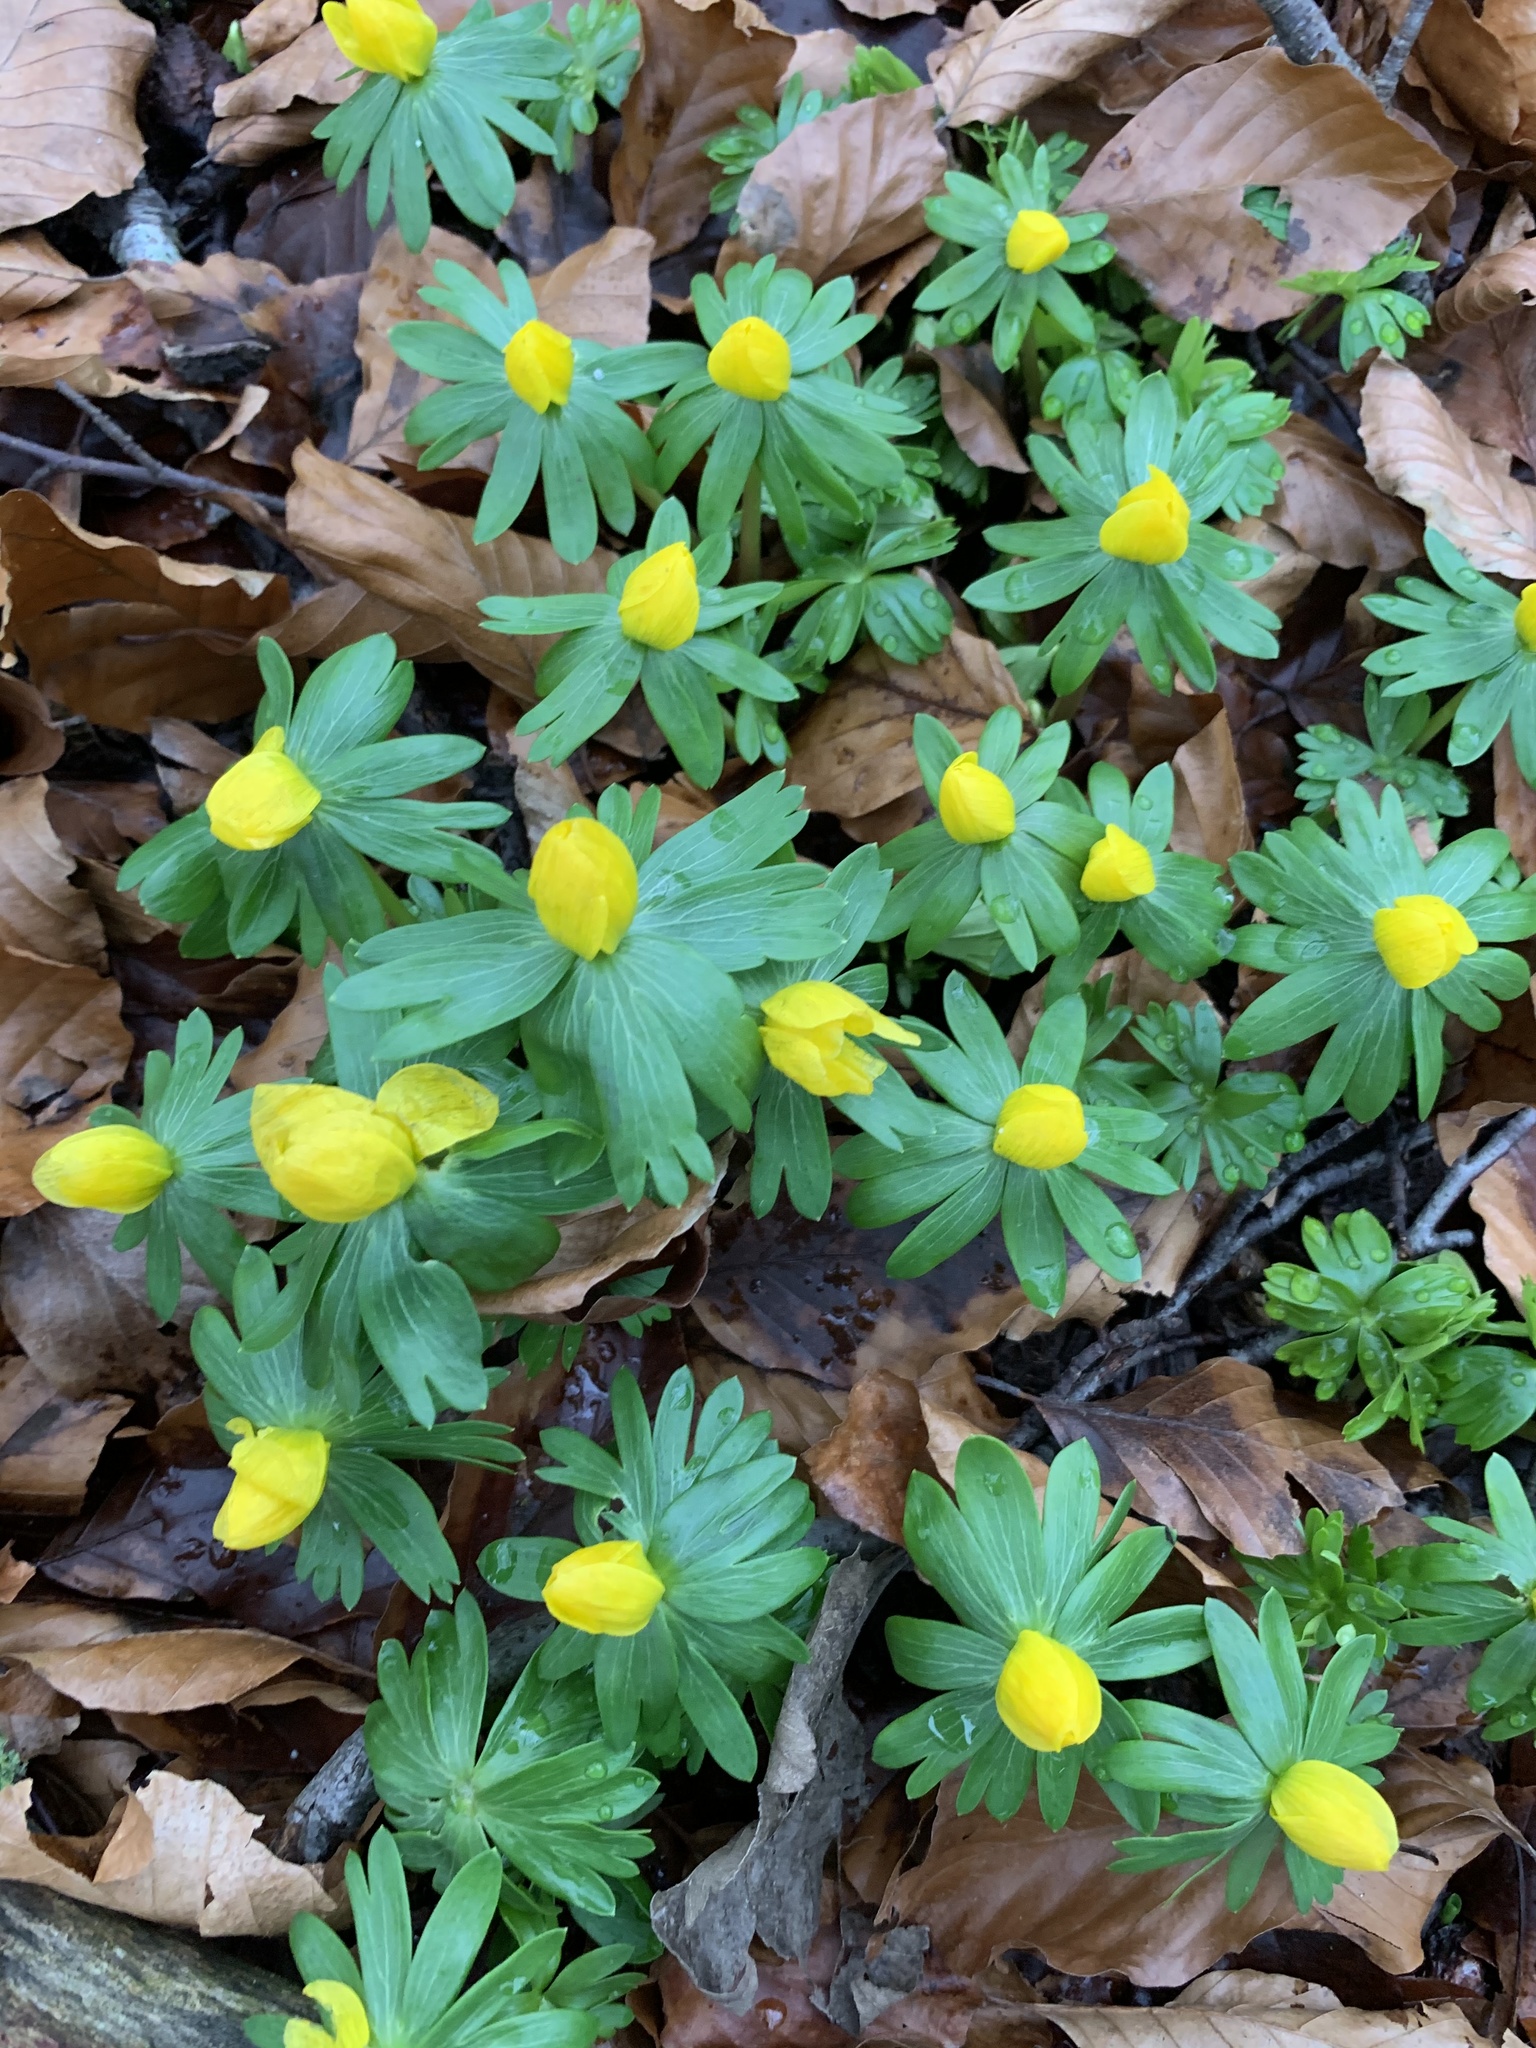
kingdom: Plantae
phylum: Tracheophyta
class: Magnoliopsida
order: Ranunculales
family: Ranunculaceae
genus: Eranthis
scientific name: Eranthis hyemalis
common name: Winter aconite
